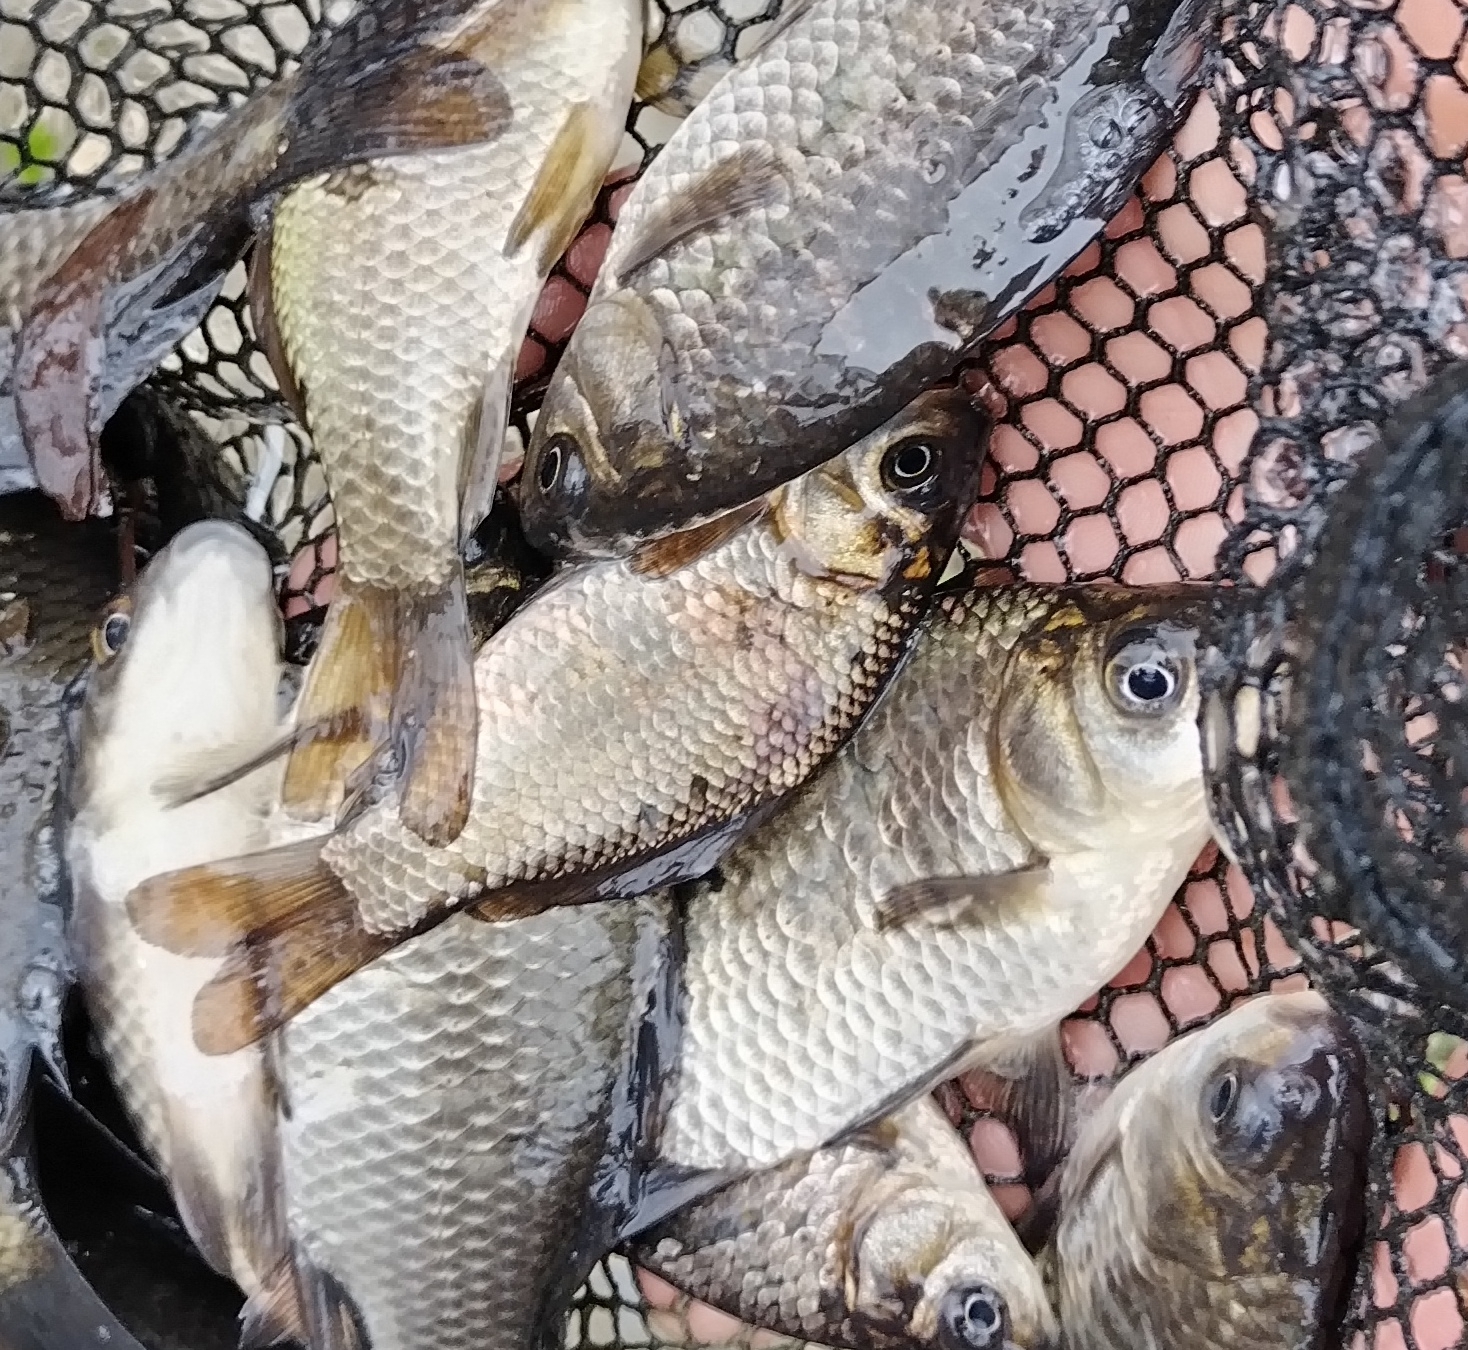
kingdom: Animalia
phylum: Chordata
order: Cypriniformes
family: Cyprinidae
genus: Carassius
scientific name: Carassius gibelio
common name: Prussian carp
